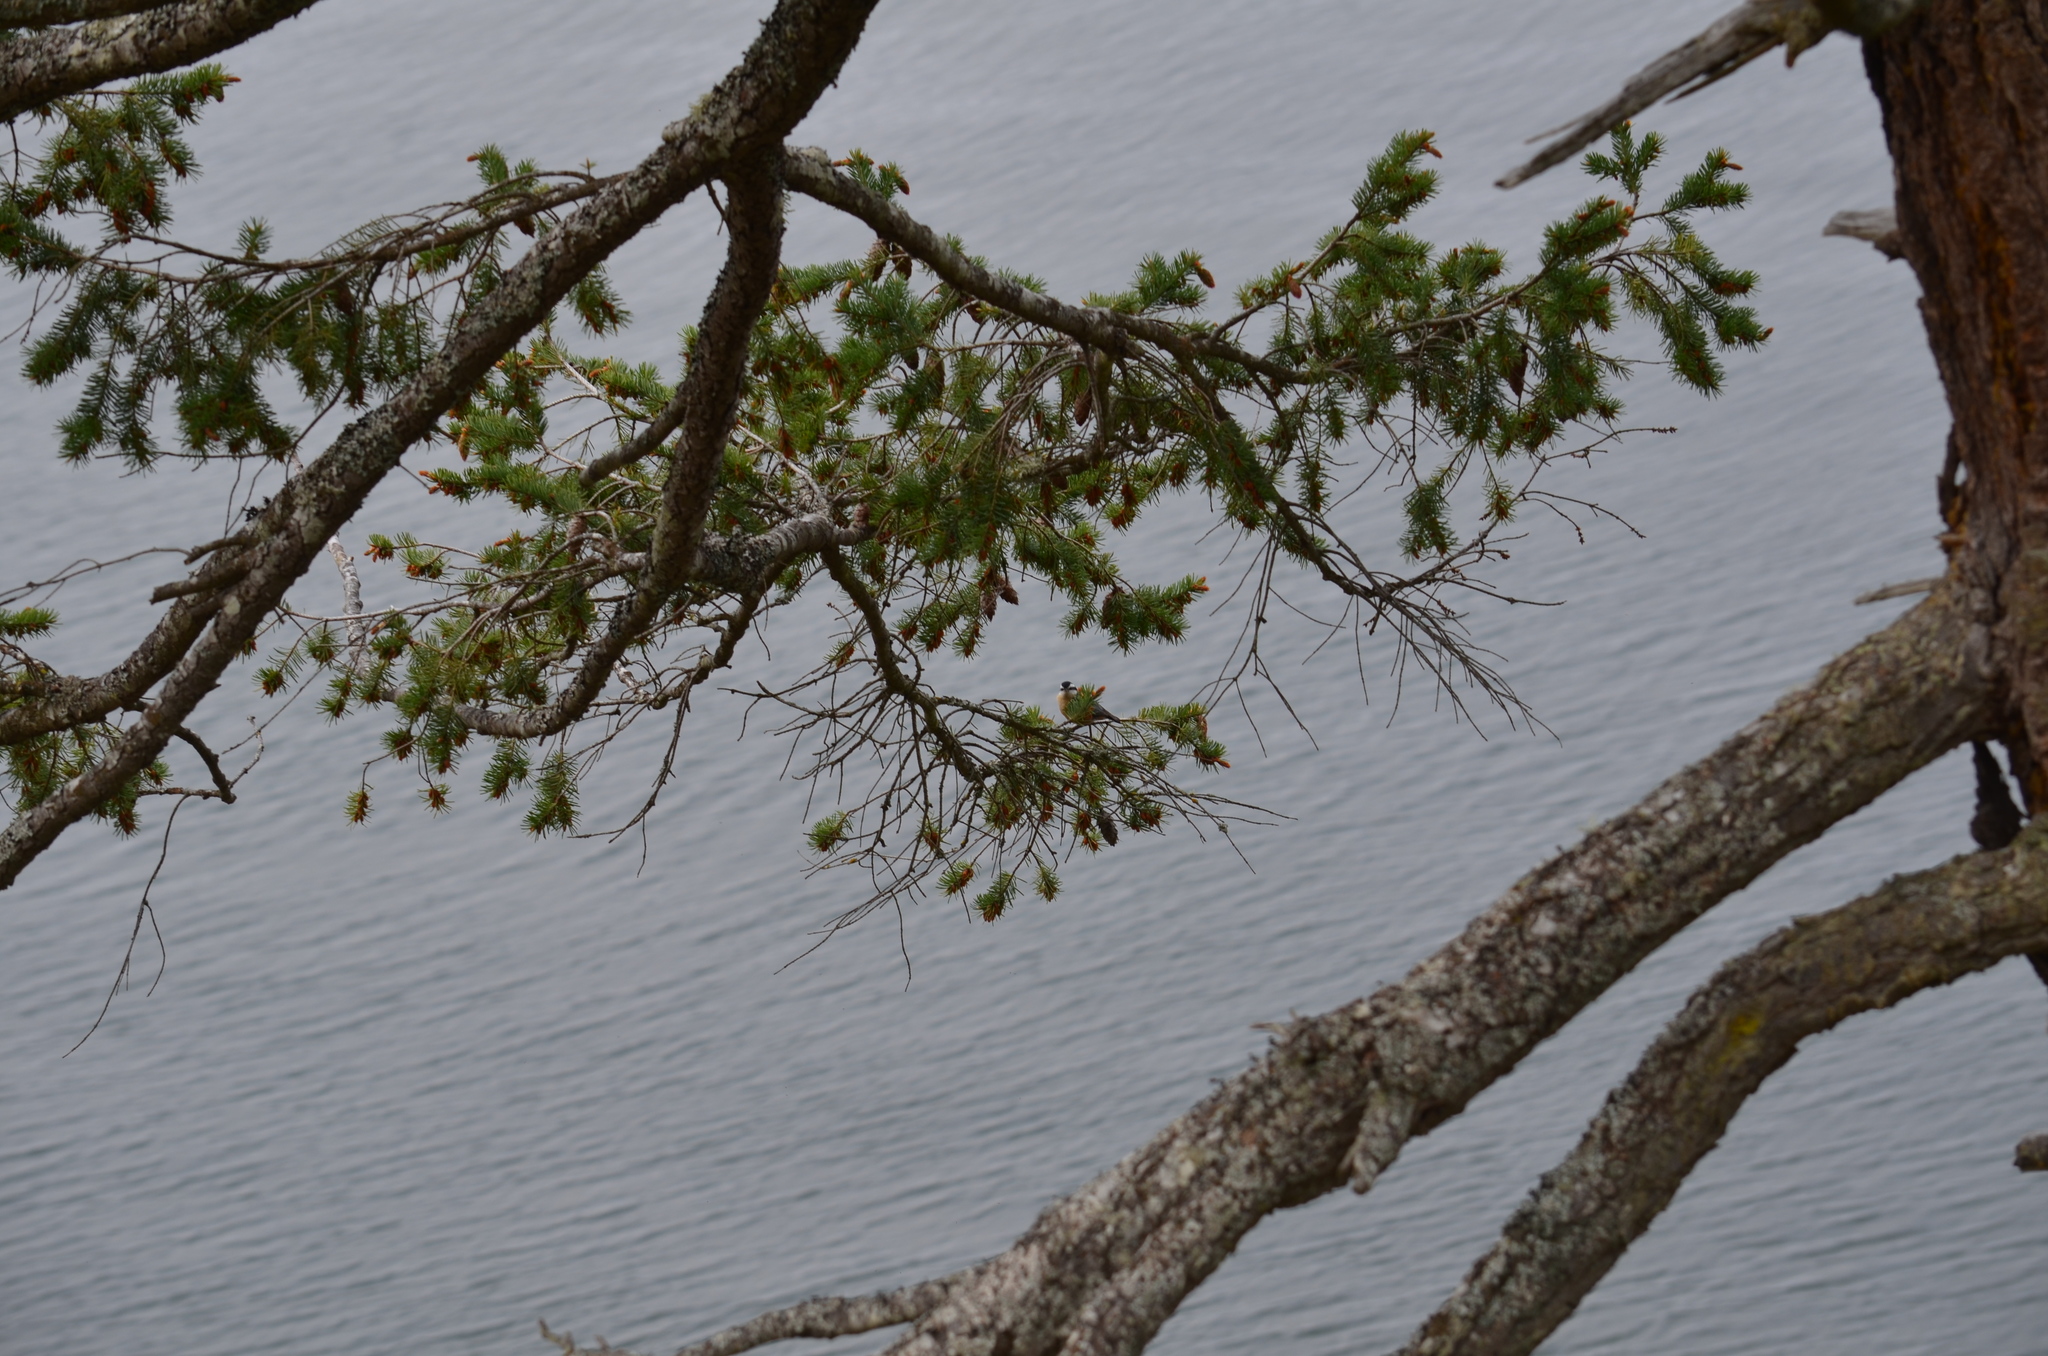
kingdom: Animalia
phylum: Chordata
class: Aves
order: Passeriformes
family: Sittidae
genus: Sitta
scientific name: Sitta canadensis
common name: Red-breasted nuthatch
